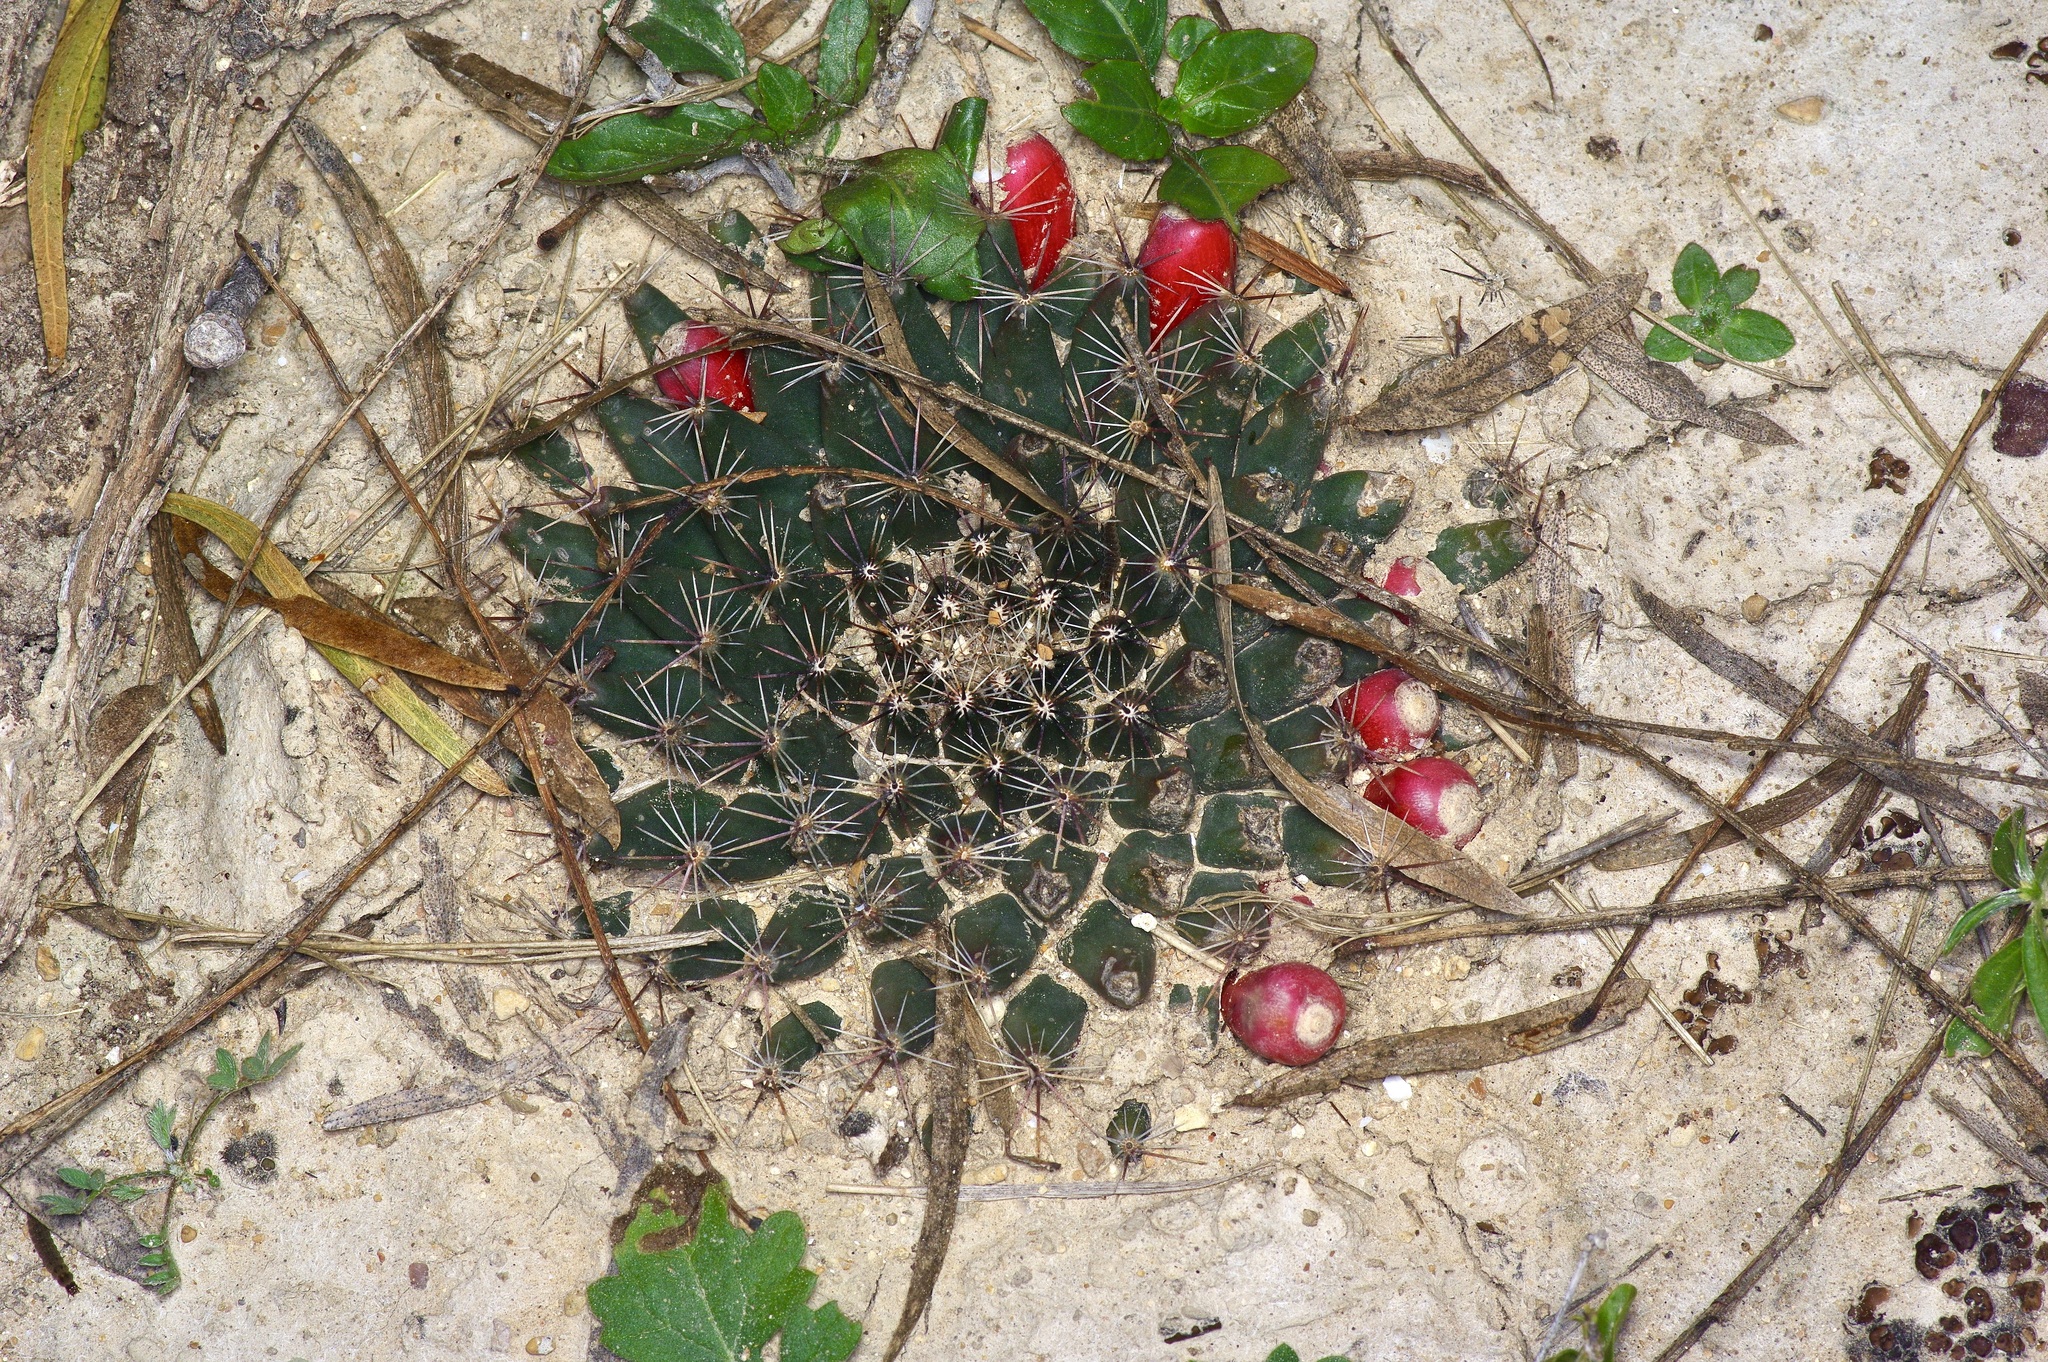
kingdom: Plantae
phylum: Tracheophyta
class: Magnoliopsida
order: Caryophyllales
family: Cactaceae
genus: Mammillaria
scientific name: Mammillaria heyderi
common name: Little nipple cactus
